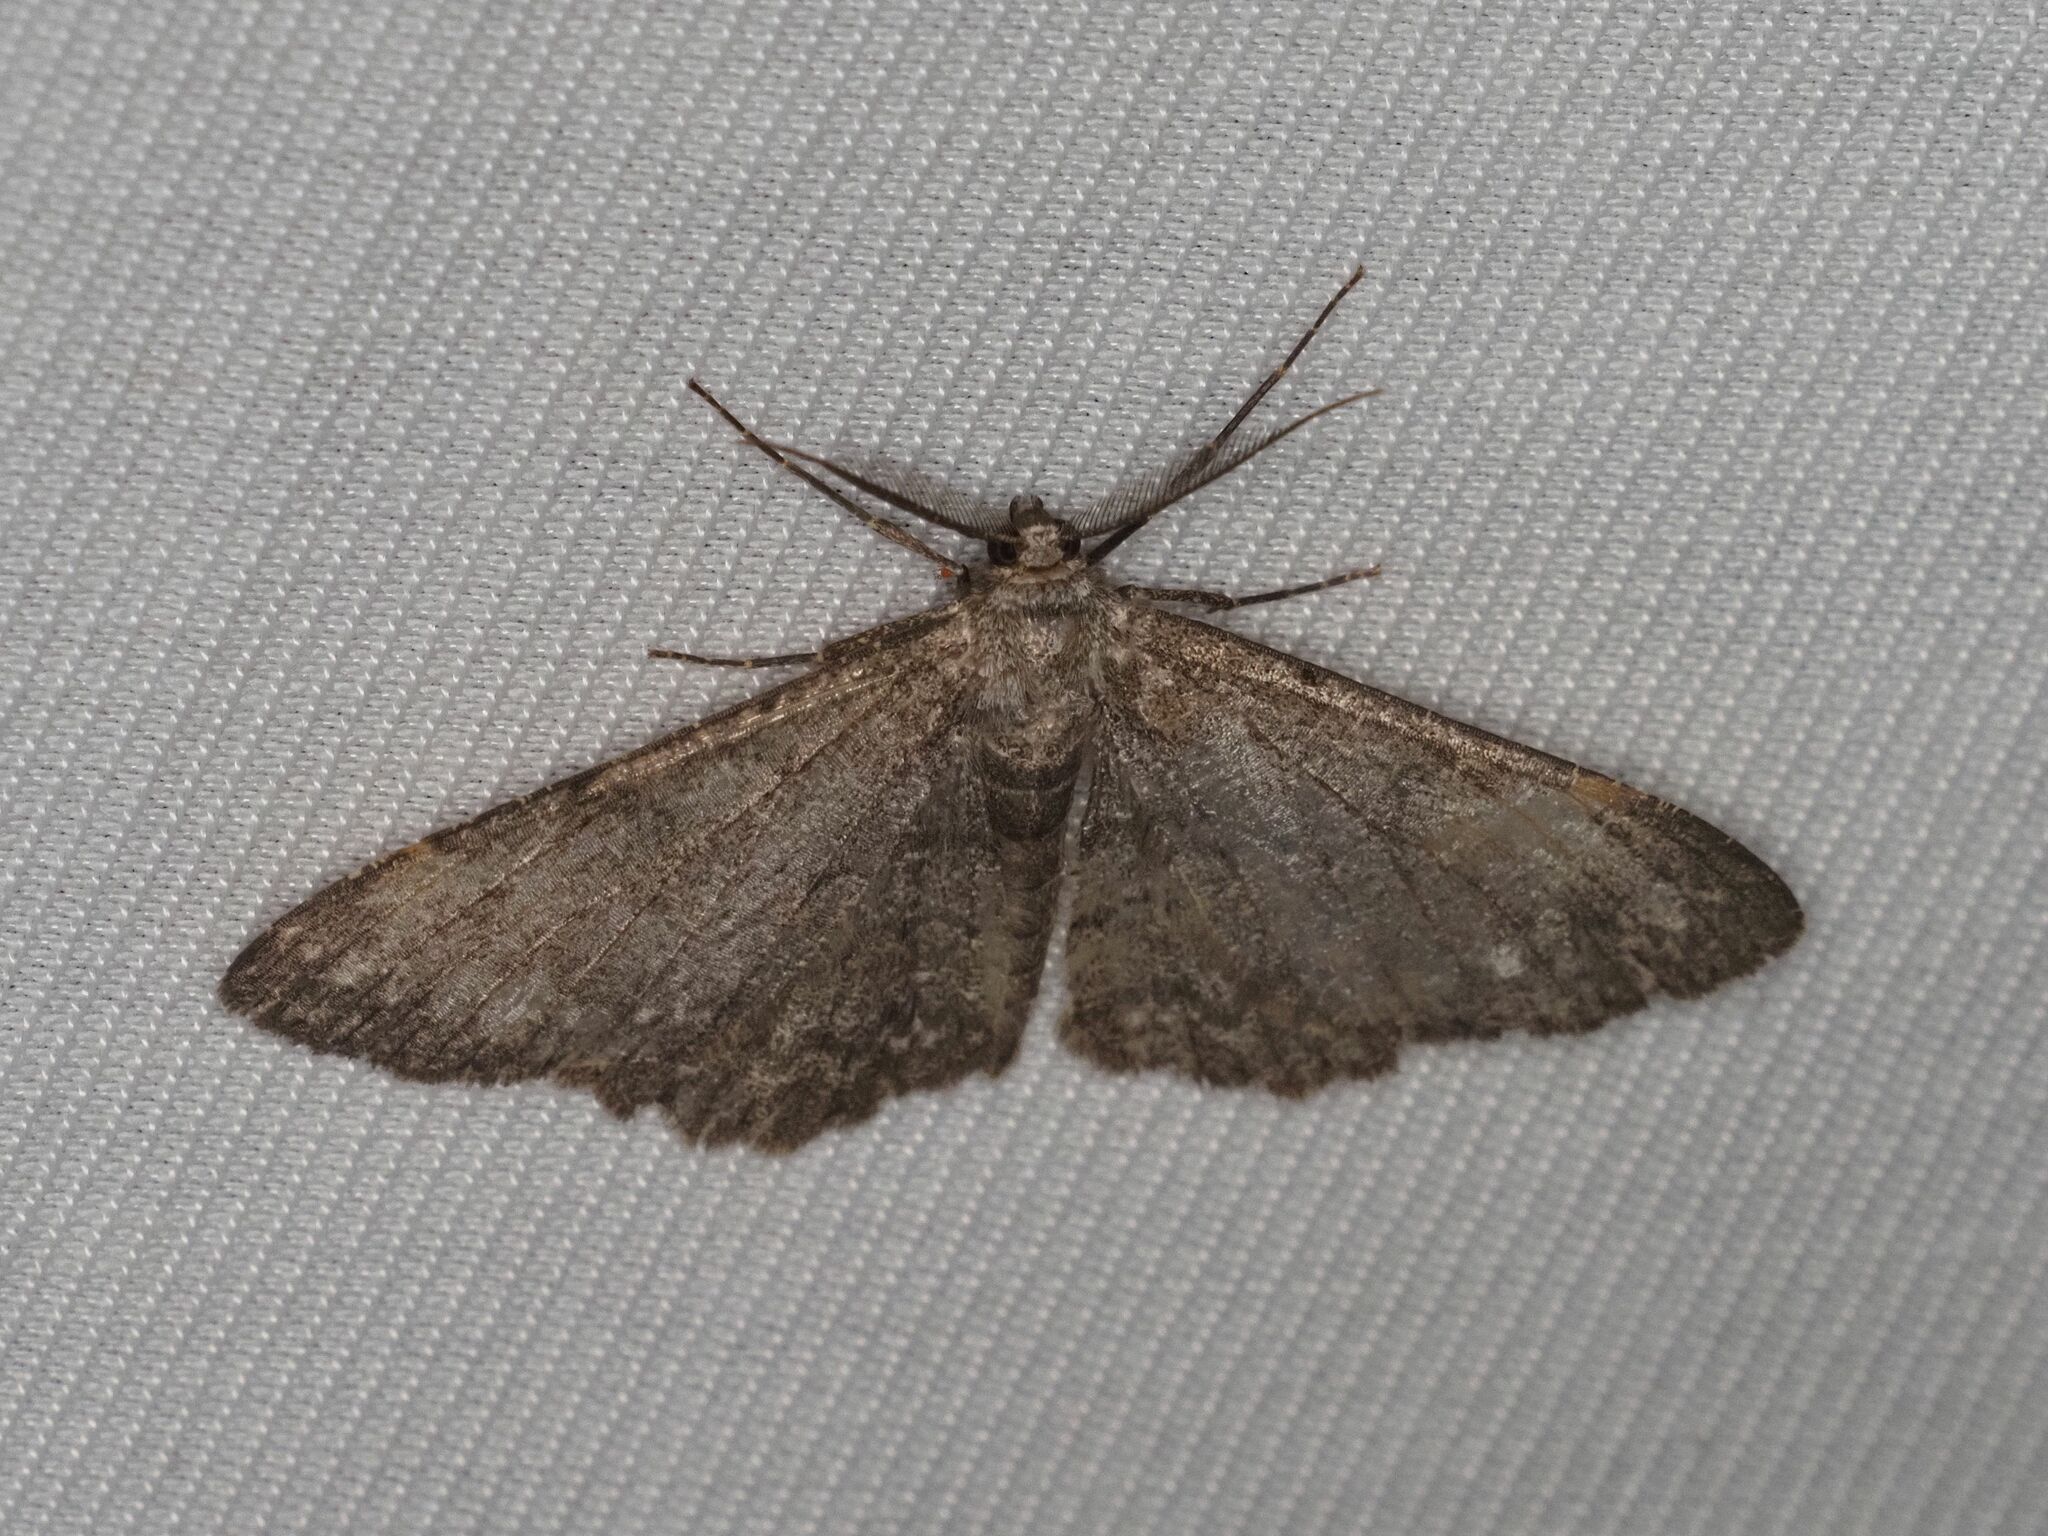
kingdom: Animalia
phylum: Arthropoda
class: Insecta
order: Lepidoptera
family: Geometridae
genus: Hypomecis
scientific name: Hypomecis punctinalis
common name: Pale oak beauty
